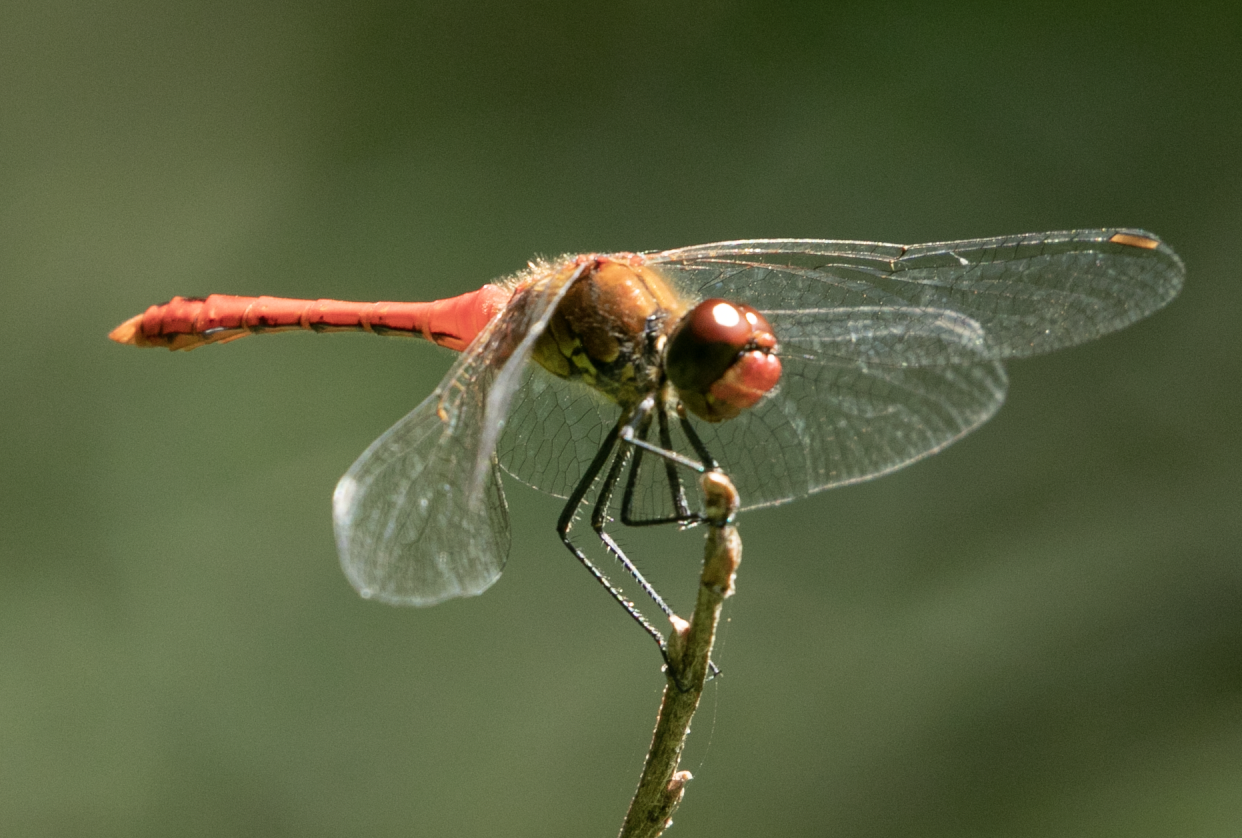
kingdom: Animalia
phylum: Arthropoda
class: Insecta
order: Odonata
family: Libellulidae
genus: Sympetrum
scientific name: Sympetrum sanguineum
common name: Ruddy darter
